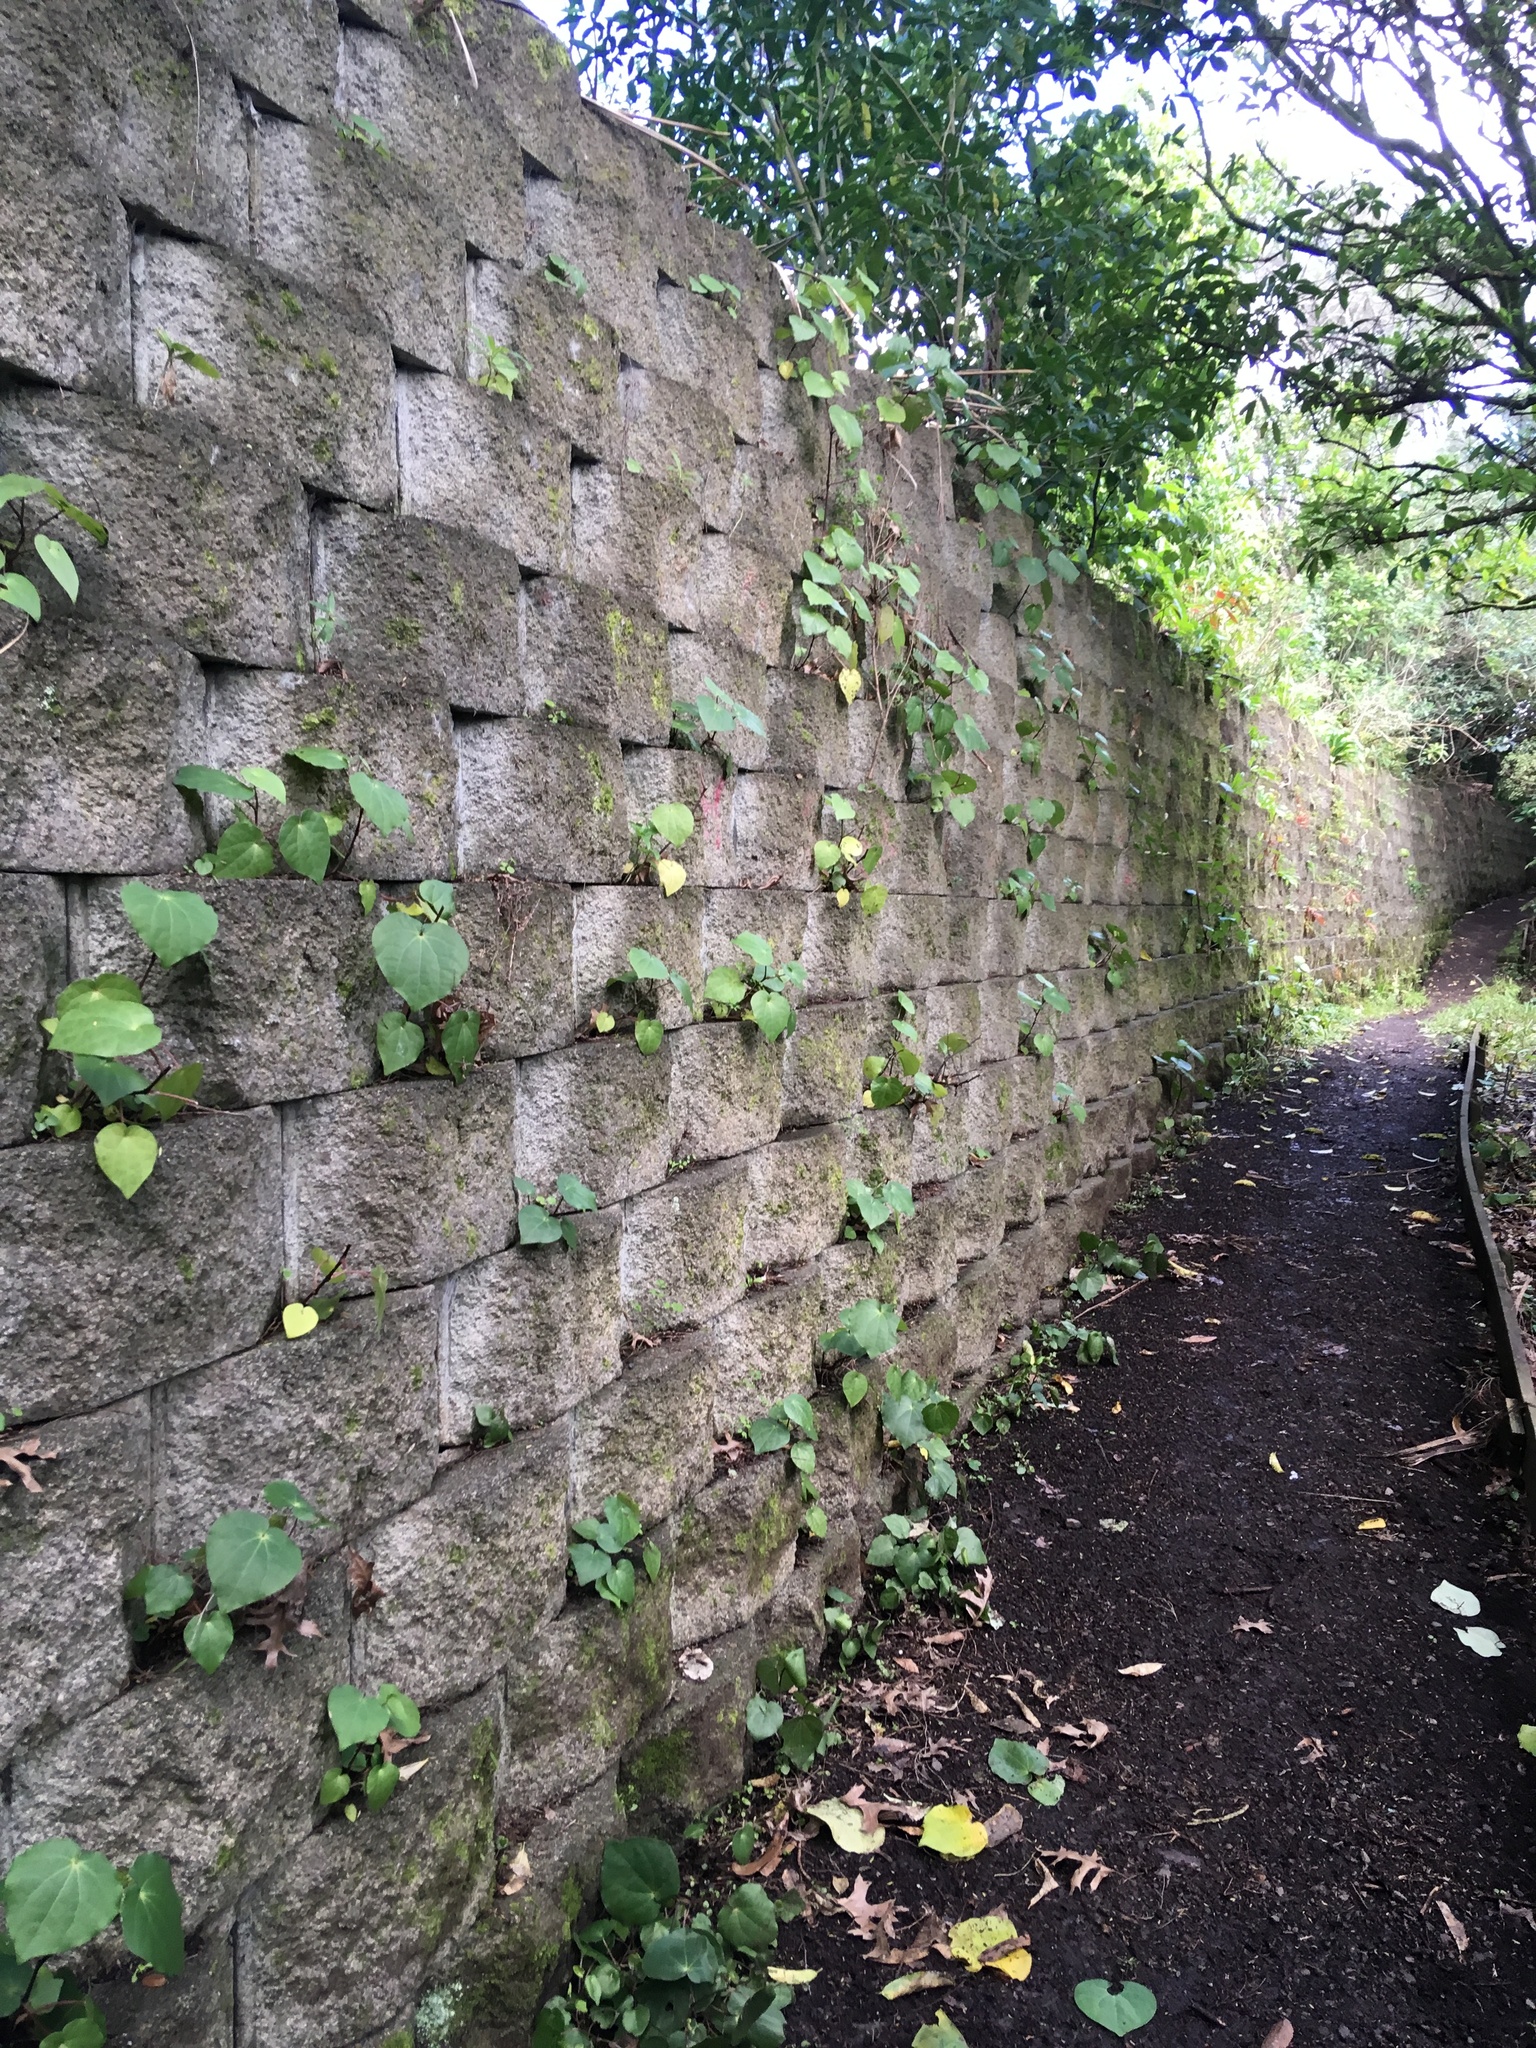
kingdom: Plantae
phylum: Tracheophyta
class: Magnoliopsida
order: Piperales
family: Piperaceae
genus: Macropiper
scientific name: Macropiper excelsum
